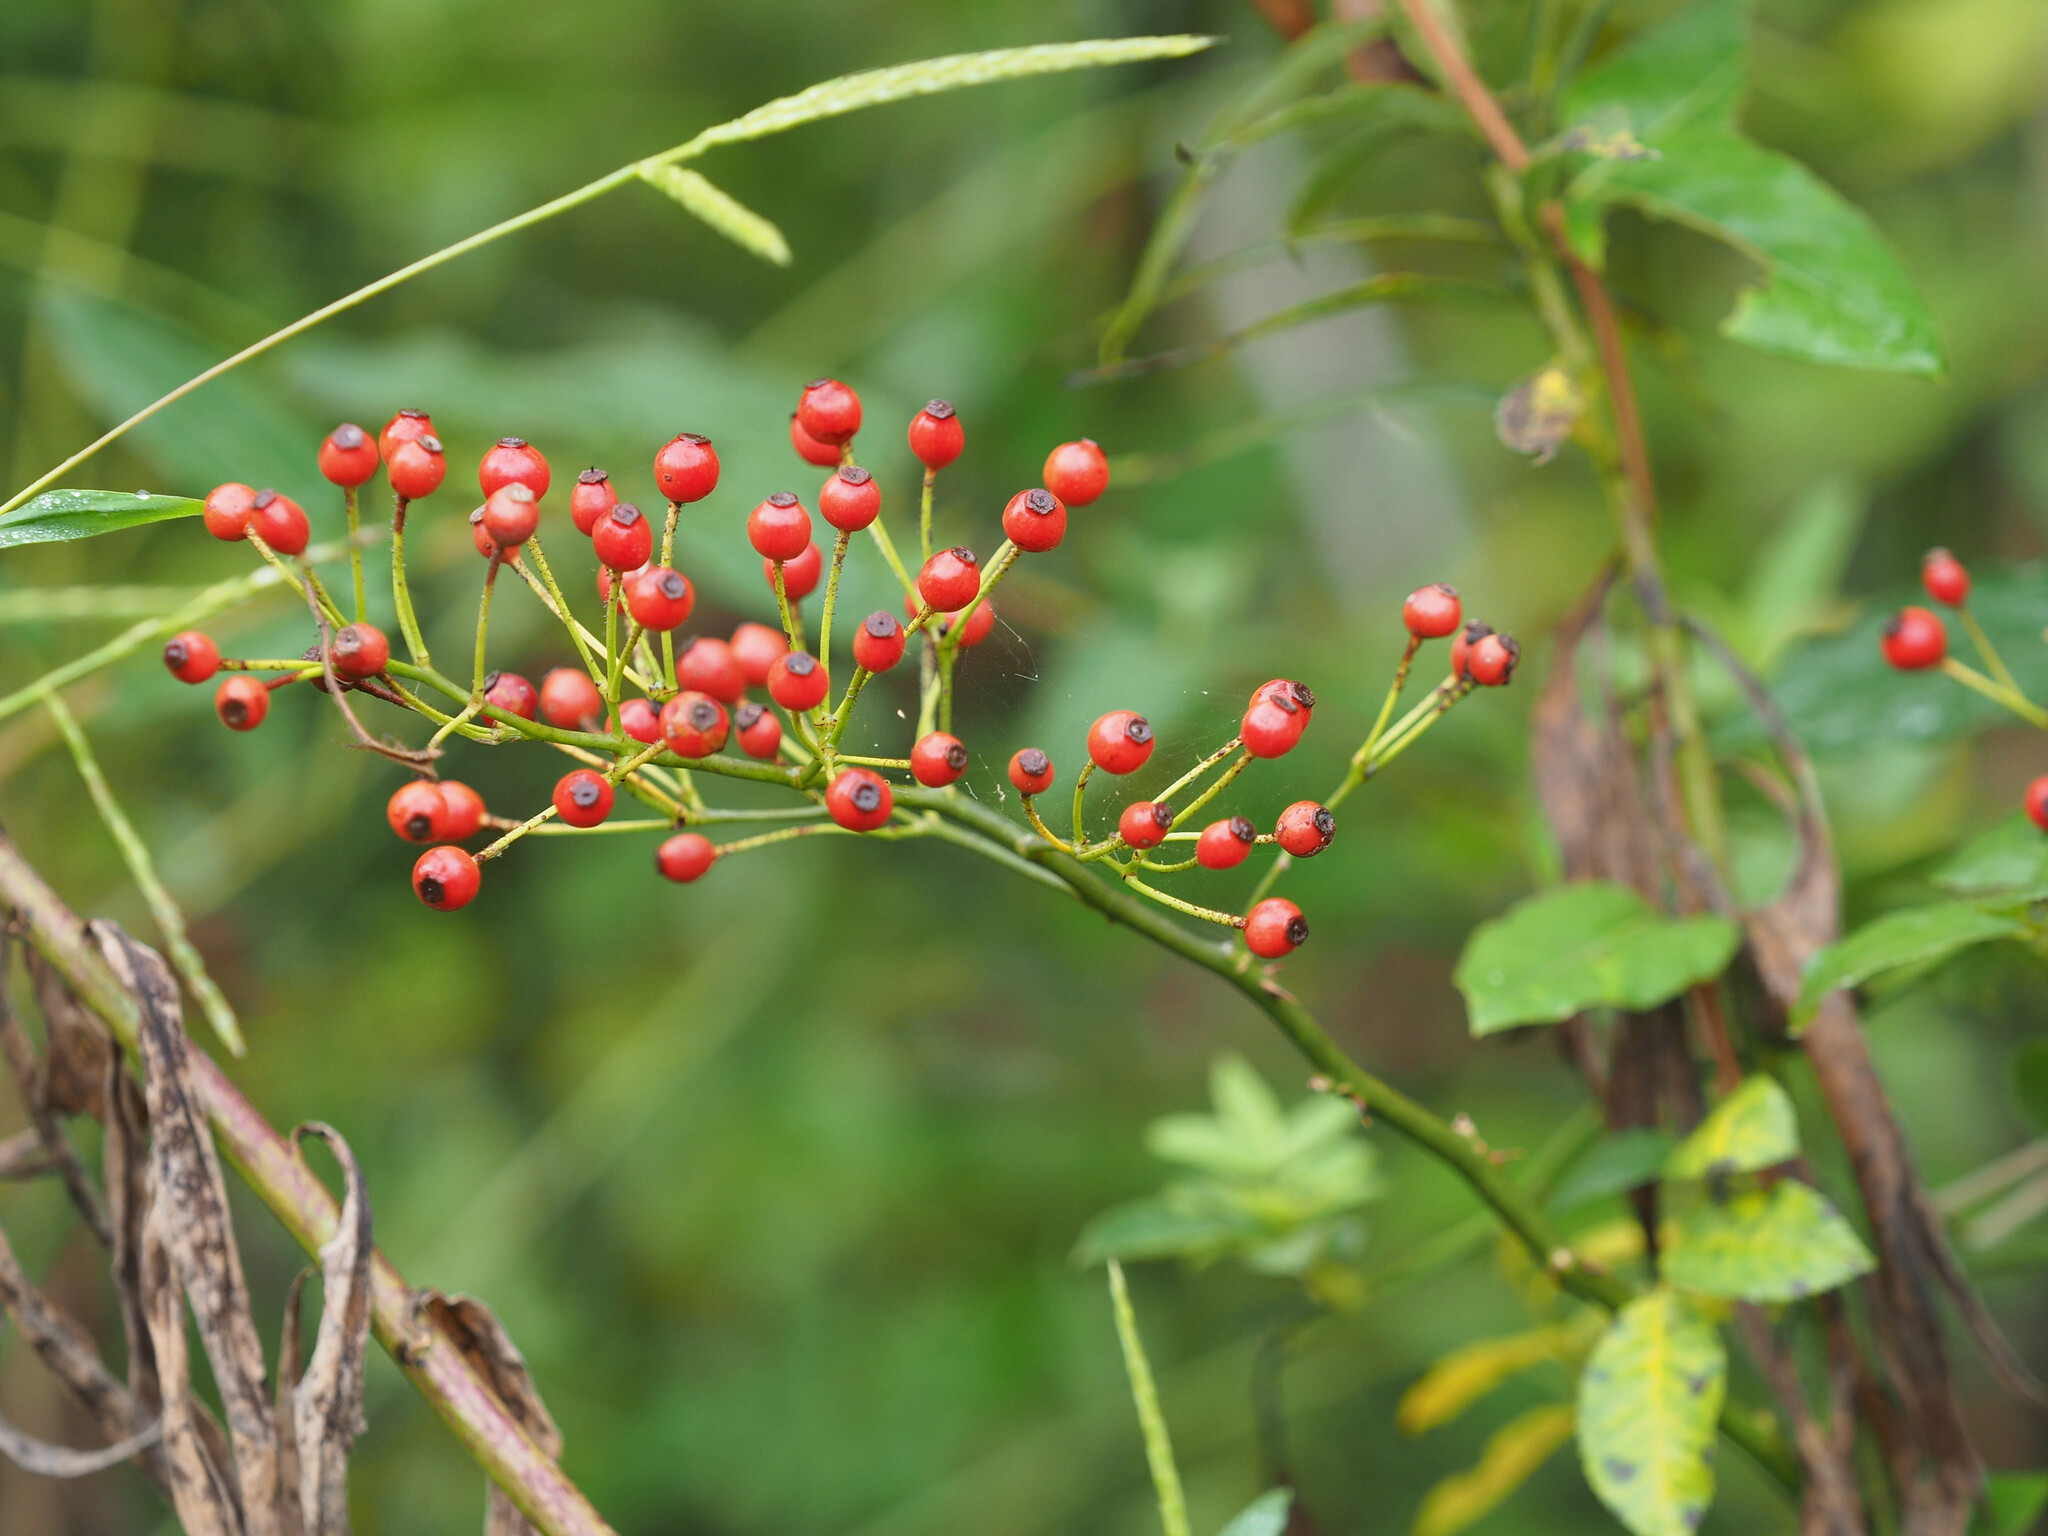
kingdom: Plantae
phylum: Tracheophyta
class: Magnoliopsida
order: Rosales
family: Rosaceae
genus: Rosa
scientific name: Rosa multiflora
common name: Multiflora rose
